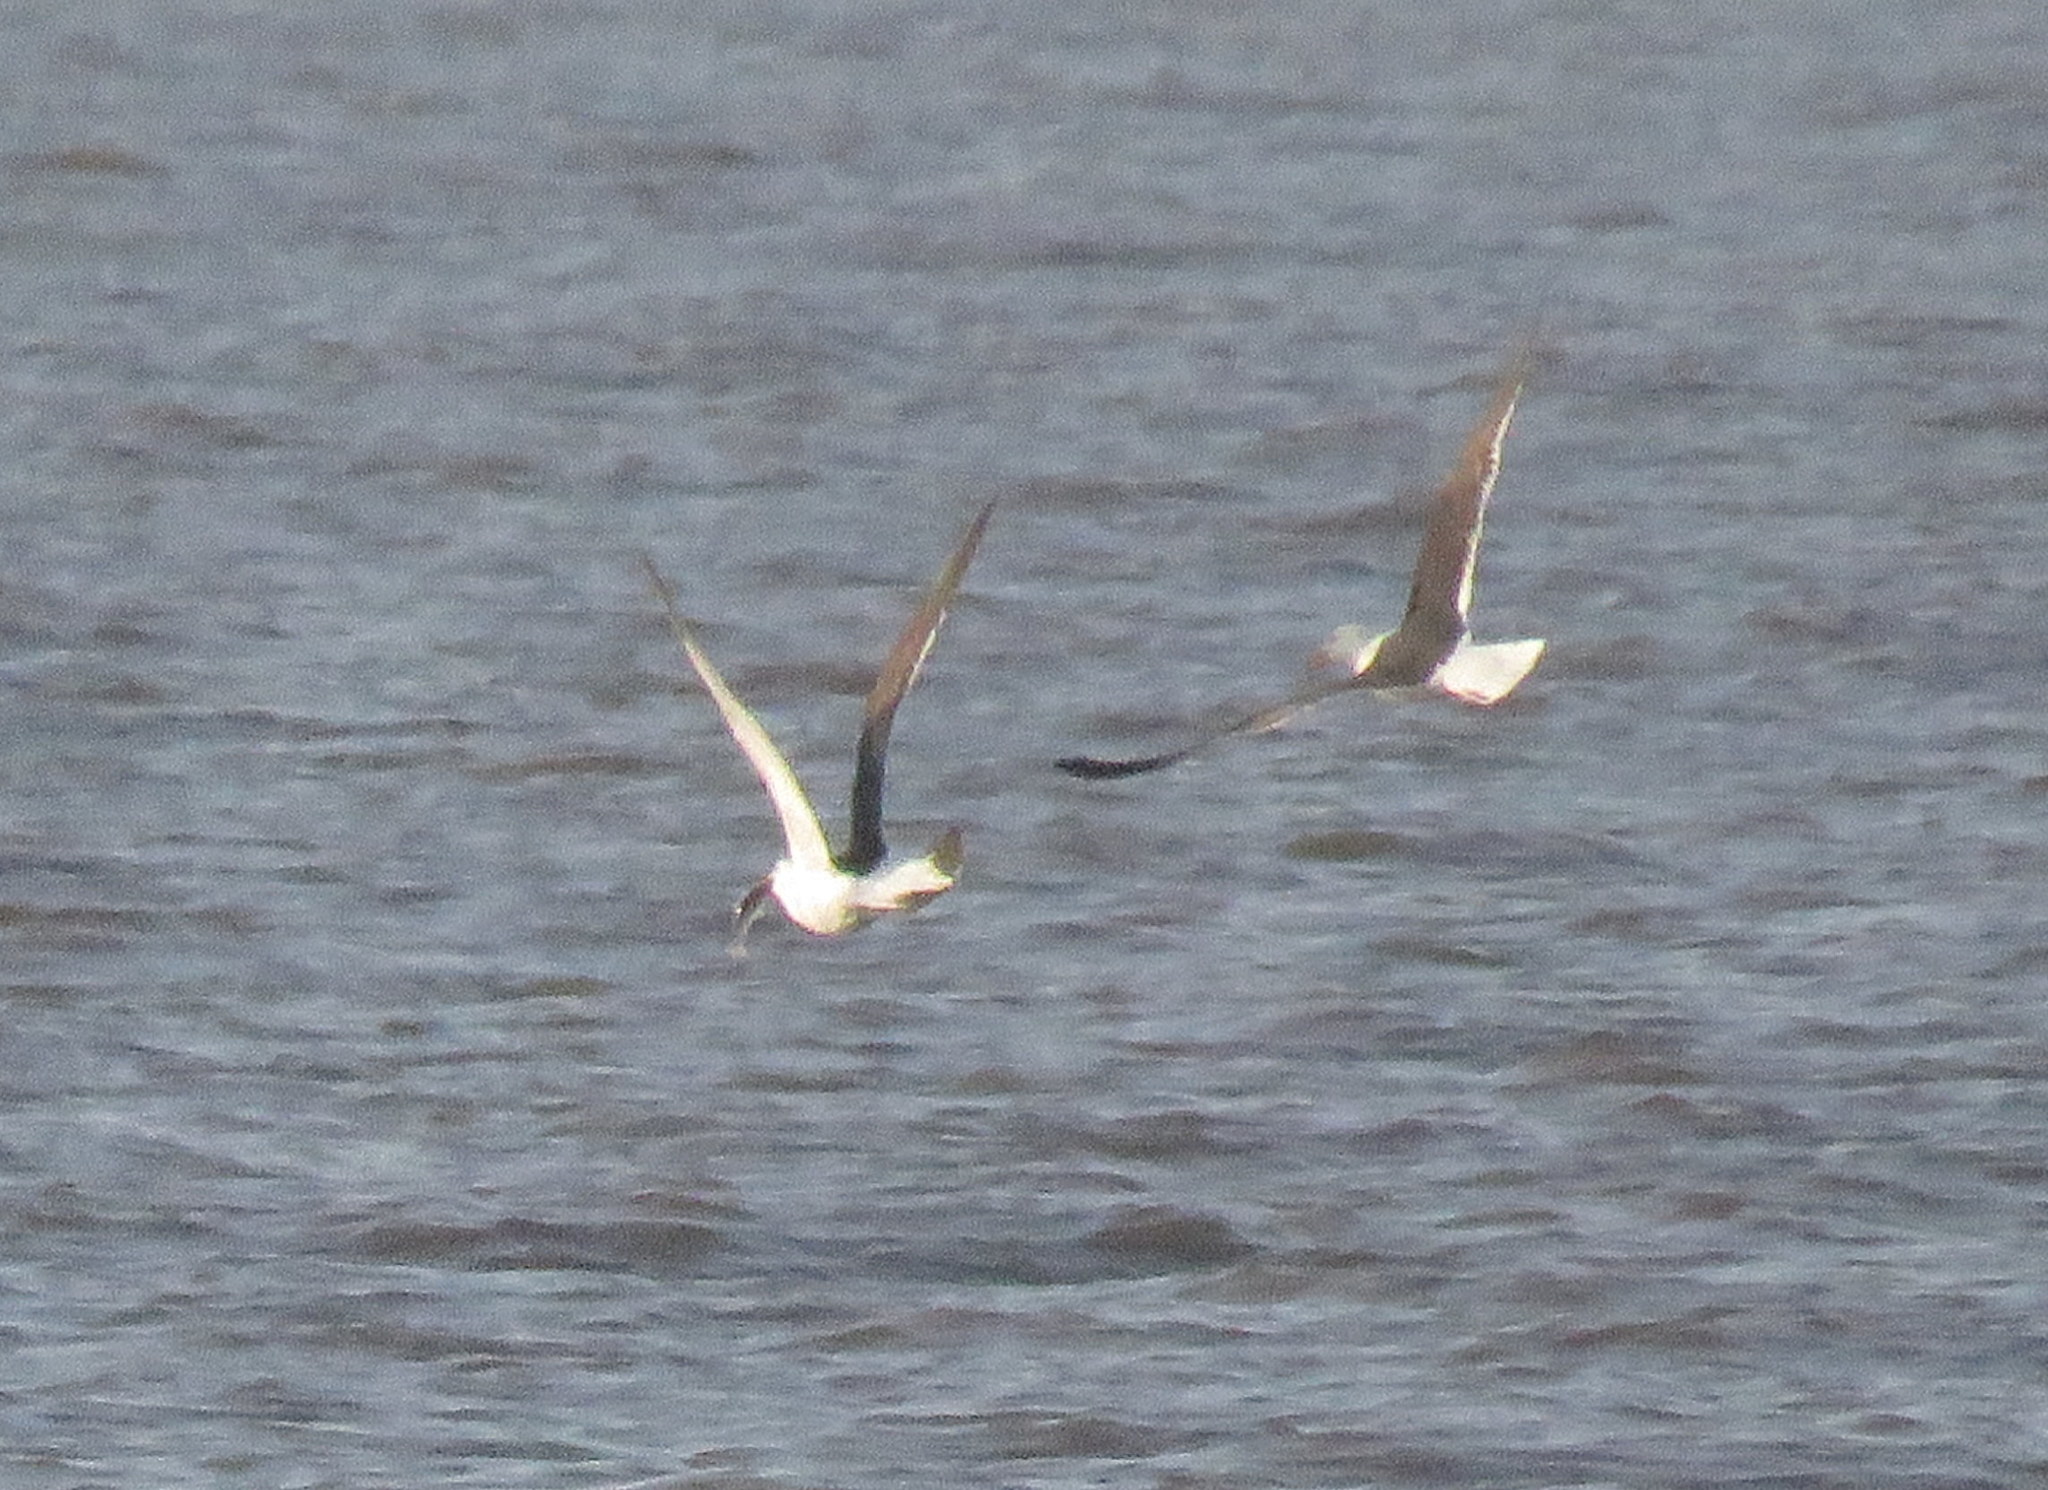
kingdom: Animalia
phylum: Chordata
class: Aves
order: Charadriiformes
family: Laridae
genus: Larus
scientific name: Larus dominicanus
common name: Kelp gull
